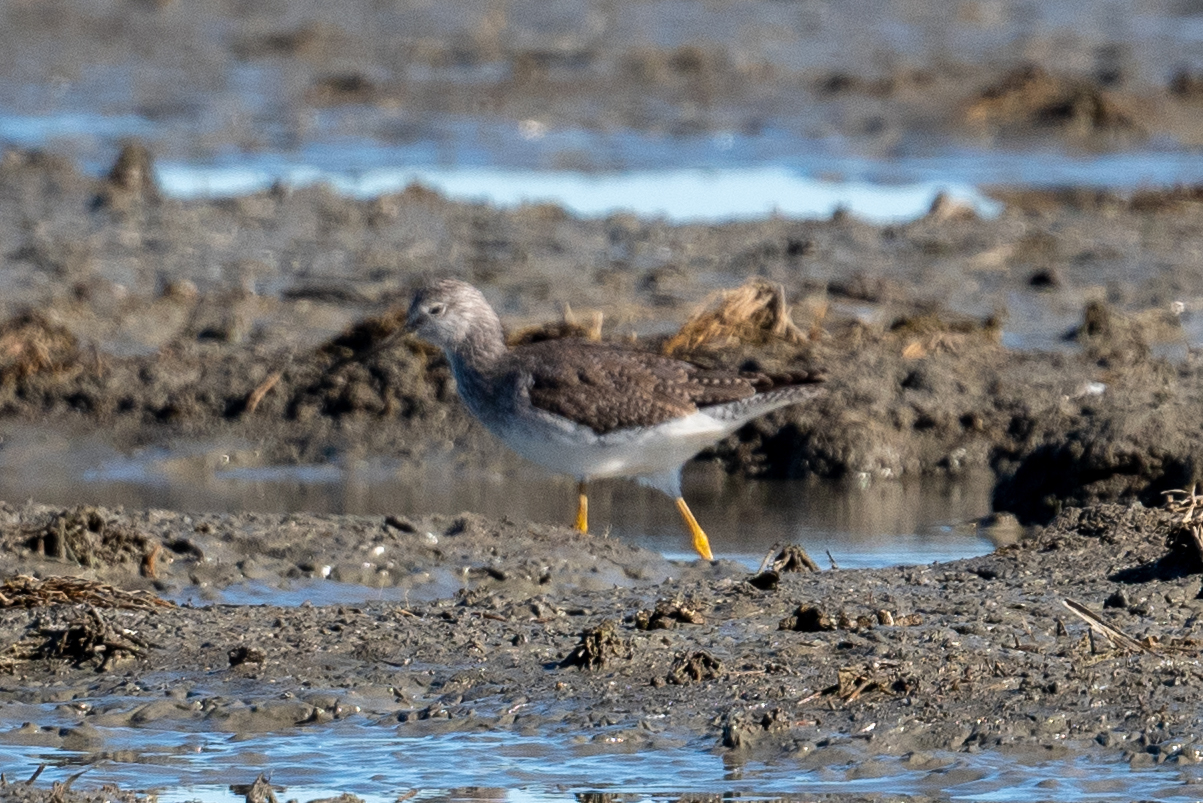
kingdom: Animalia
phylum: Chordata
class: Aves
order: Charadriiformes
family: Scolopacidae
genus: Tringa
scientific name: Tringa melanoleuca
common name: Greater yellowlegs
